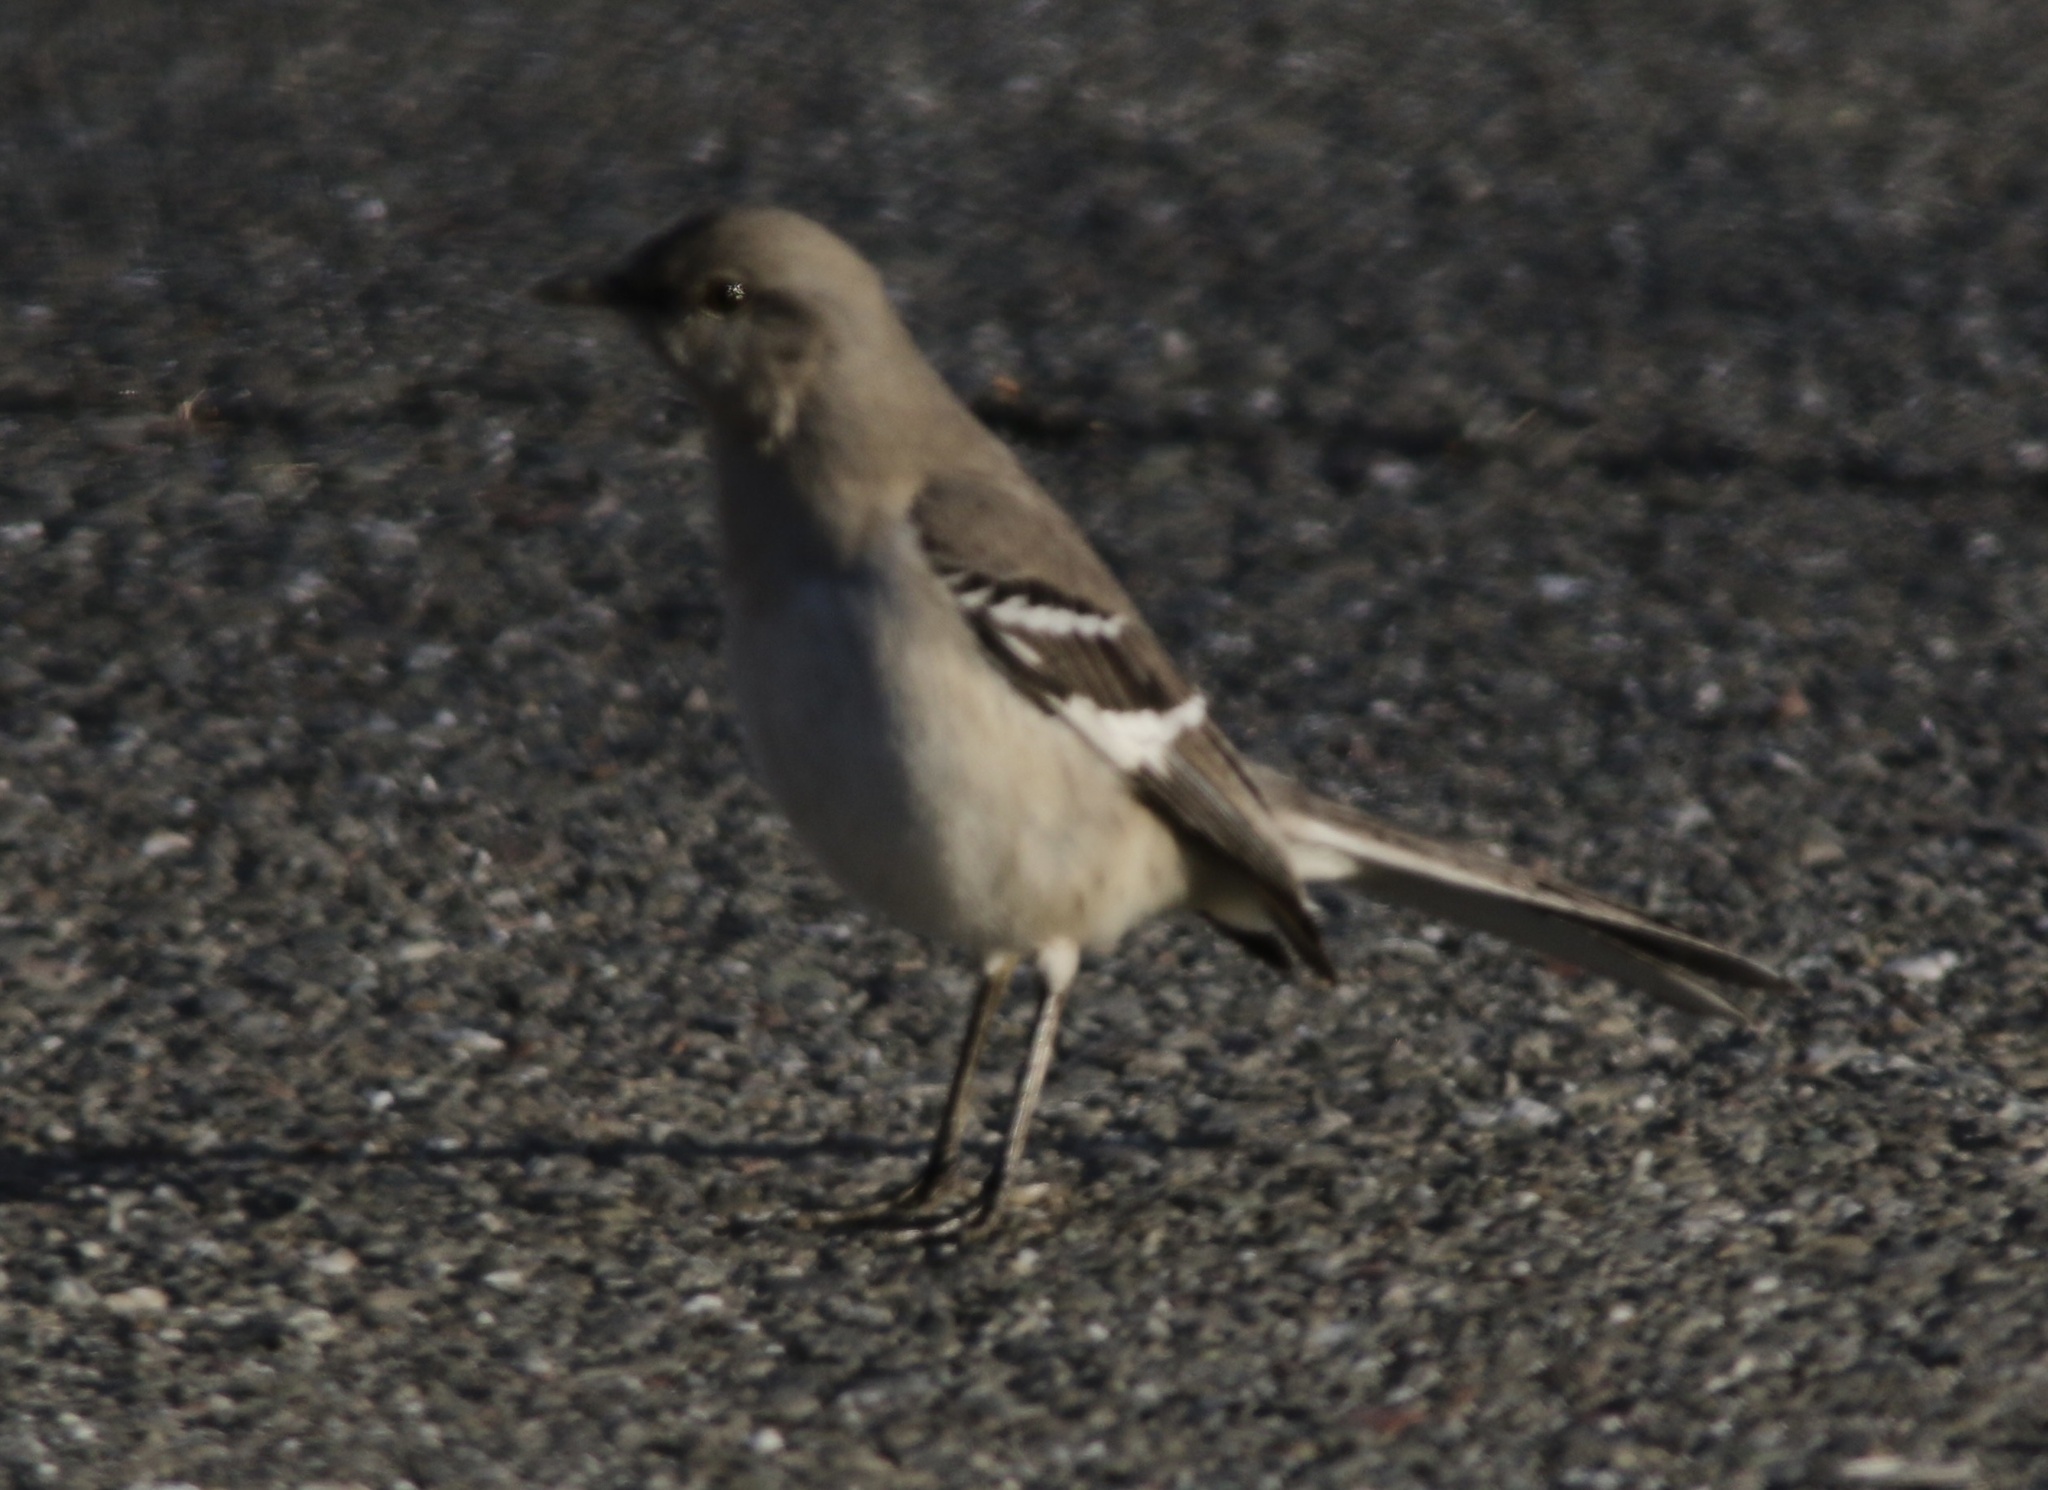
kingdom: Animalia
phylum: Chordata
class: Aves
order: Passeriformes
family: Mimidae
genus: Mimus
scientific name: Mimus polyglottos
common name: Northern mockingbird
